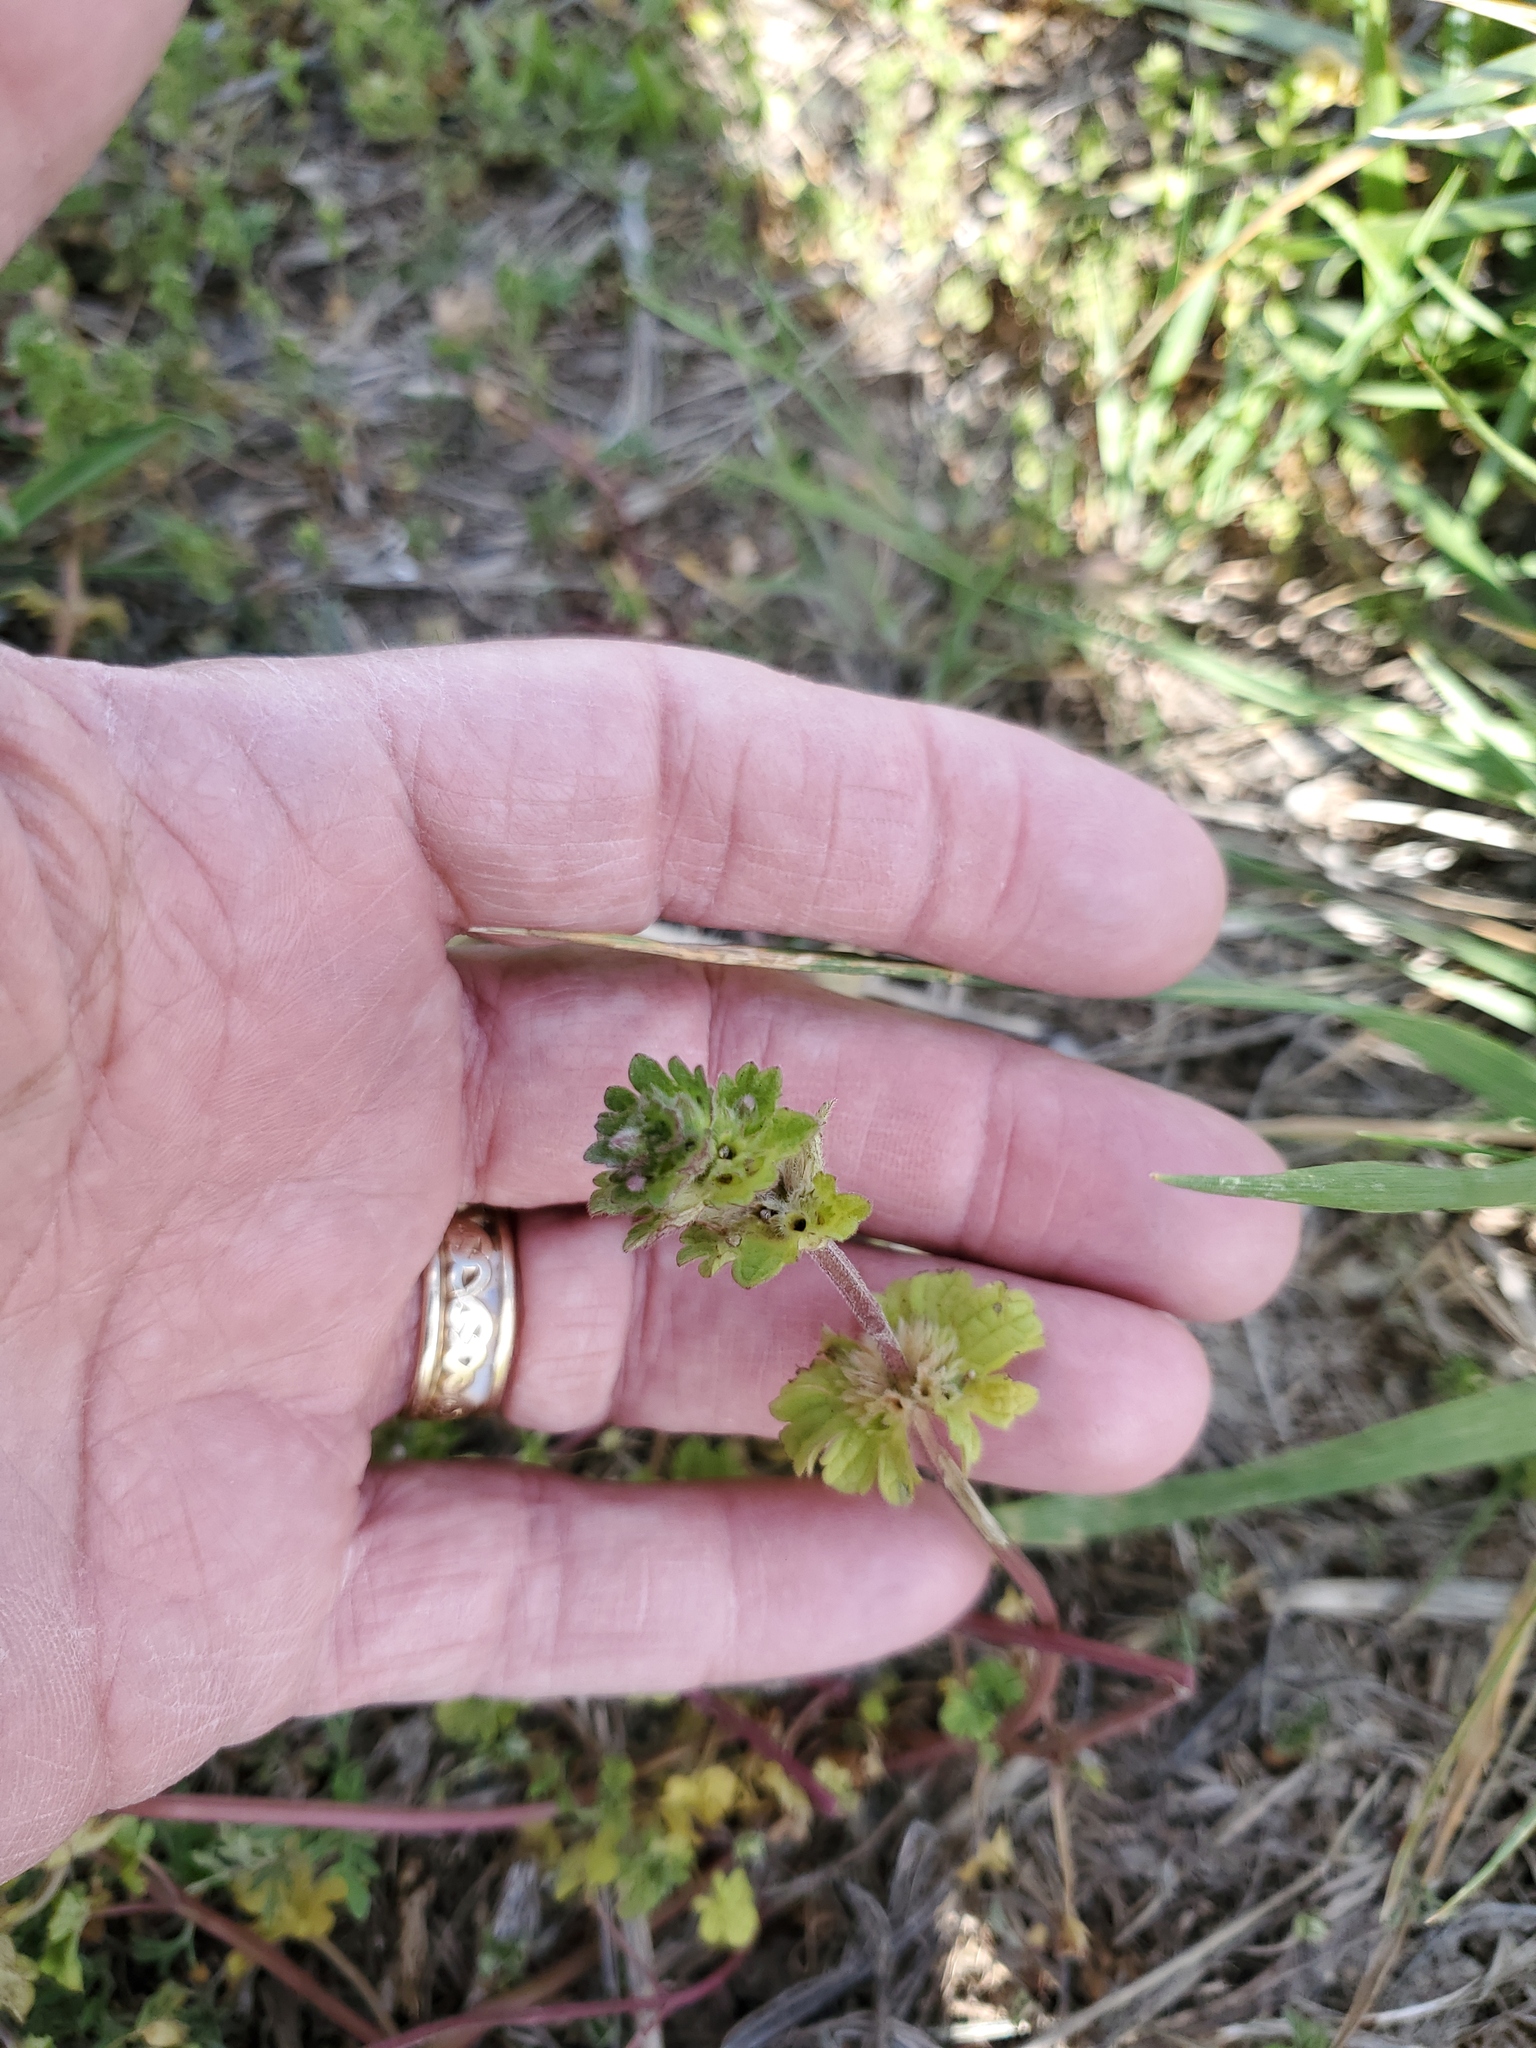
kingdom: Plantae
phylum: Tracheophyta
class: Magnoliopsida
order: Lamiales
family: Lamiaceae
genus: Lamium
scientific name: Lamium amplexicaule
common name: Henbit dead-nettle
